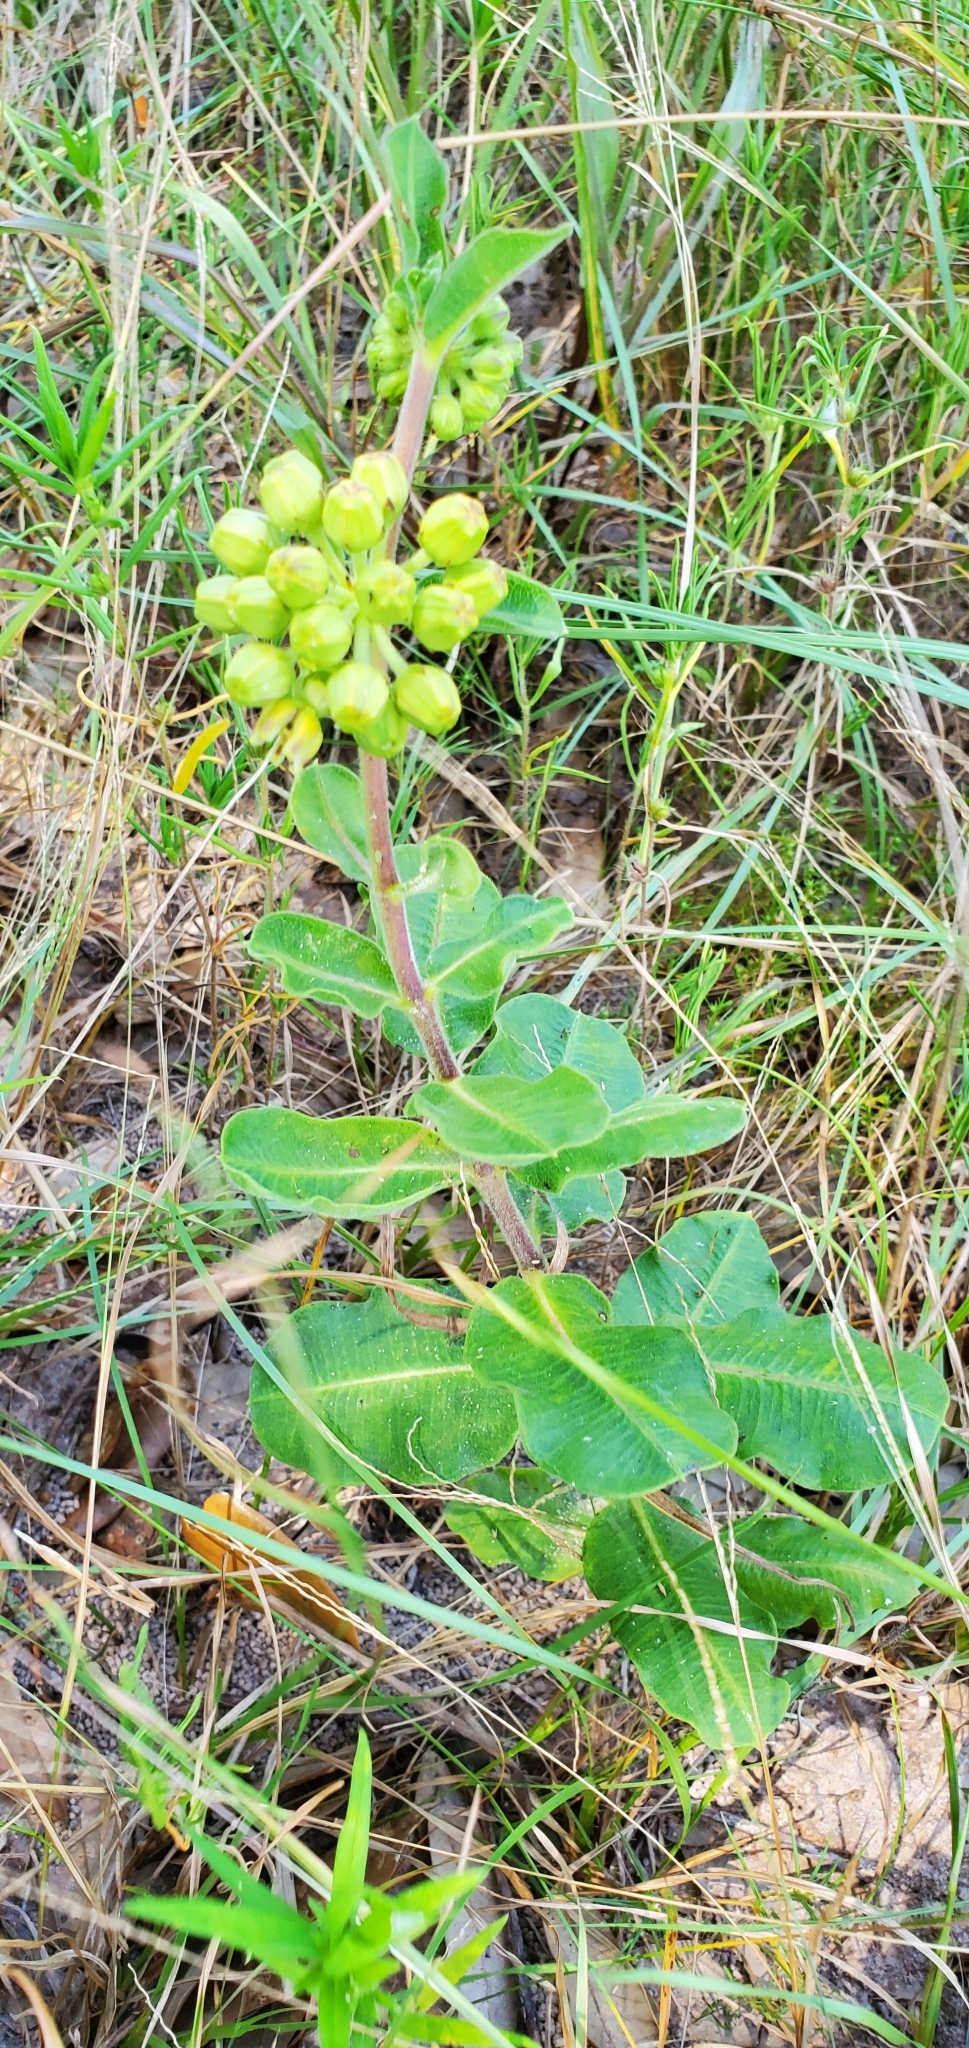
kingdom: Plantae
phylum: Tracheophyta
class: Magnoliopsida
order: Gentianales
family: Apocynaceae
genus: Asclepias
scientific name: Asclepias obovata
